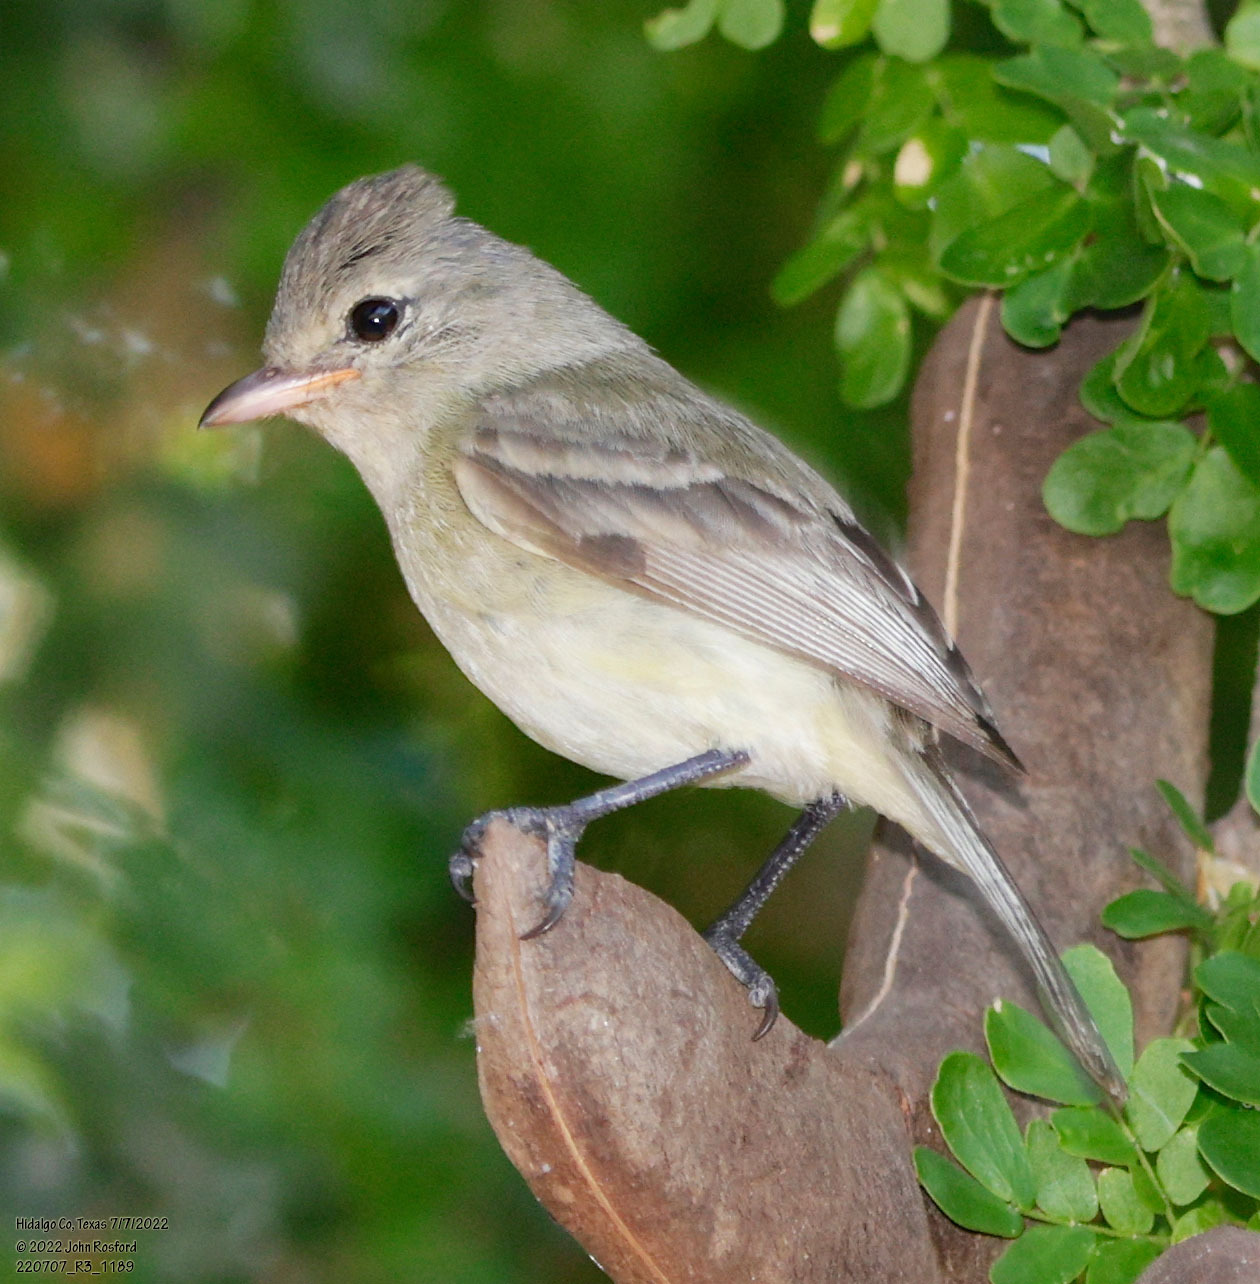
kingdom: Animalia
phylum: Chordata
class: Aves
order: Passeriformes
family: Tyrannidae
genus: Camptostoma
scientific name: Camptostoma imberbe
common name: Northern beardless-tyrannulet
